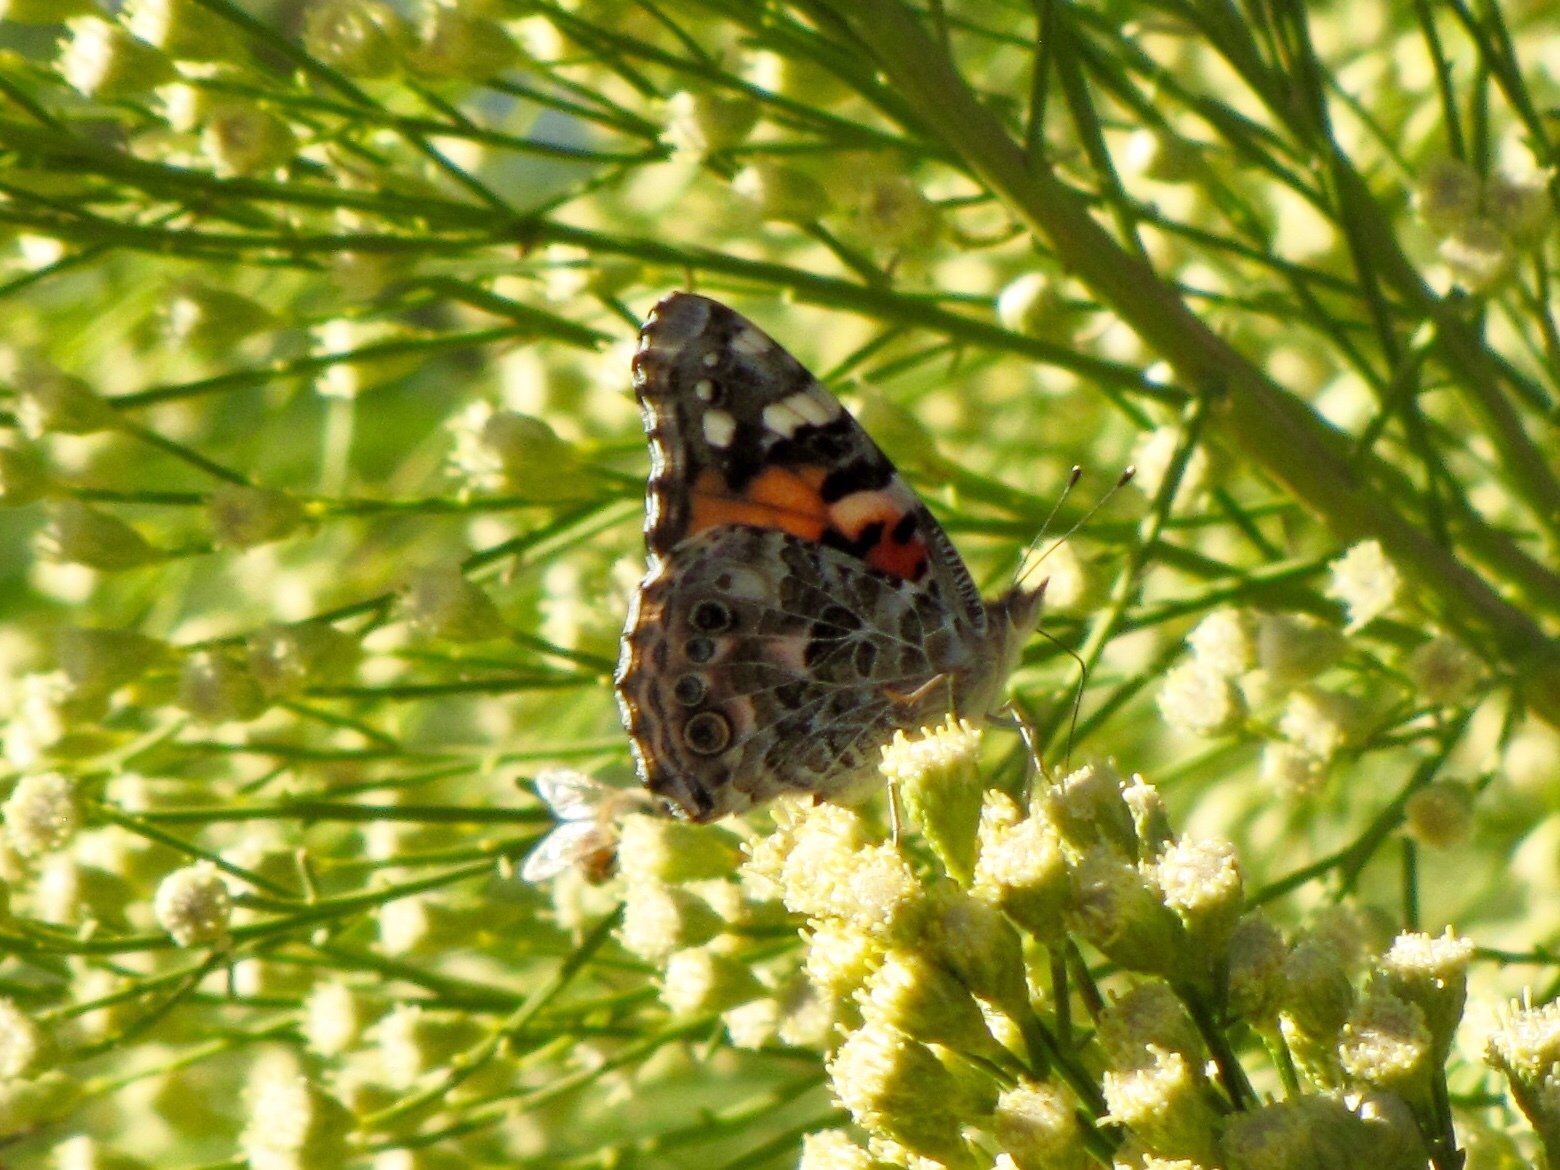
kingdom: Animalia
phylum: Arthropoda
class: Insecta
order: Lepidoptera
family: Nymphalidae
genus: Vanessa
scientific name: Vanessa cardui
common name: Painted lady
